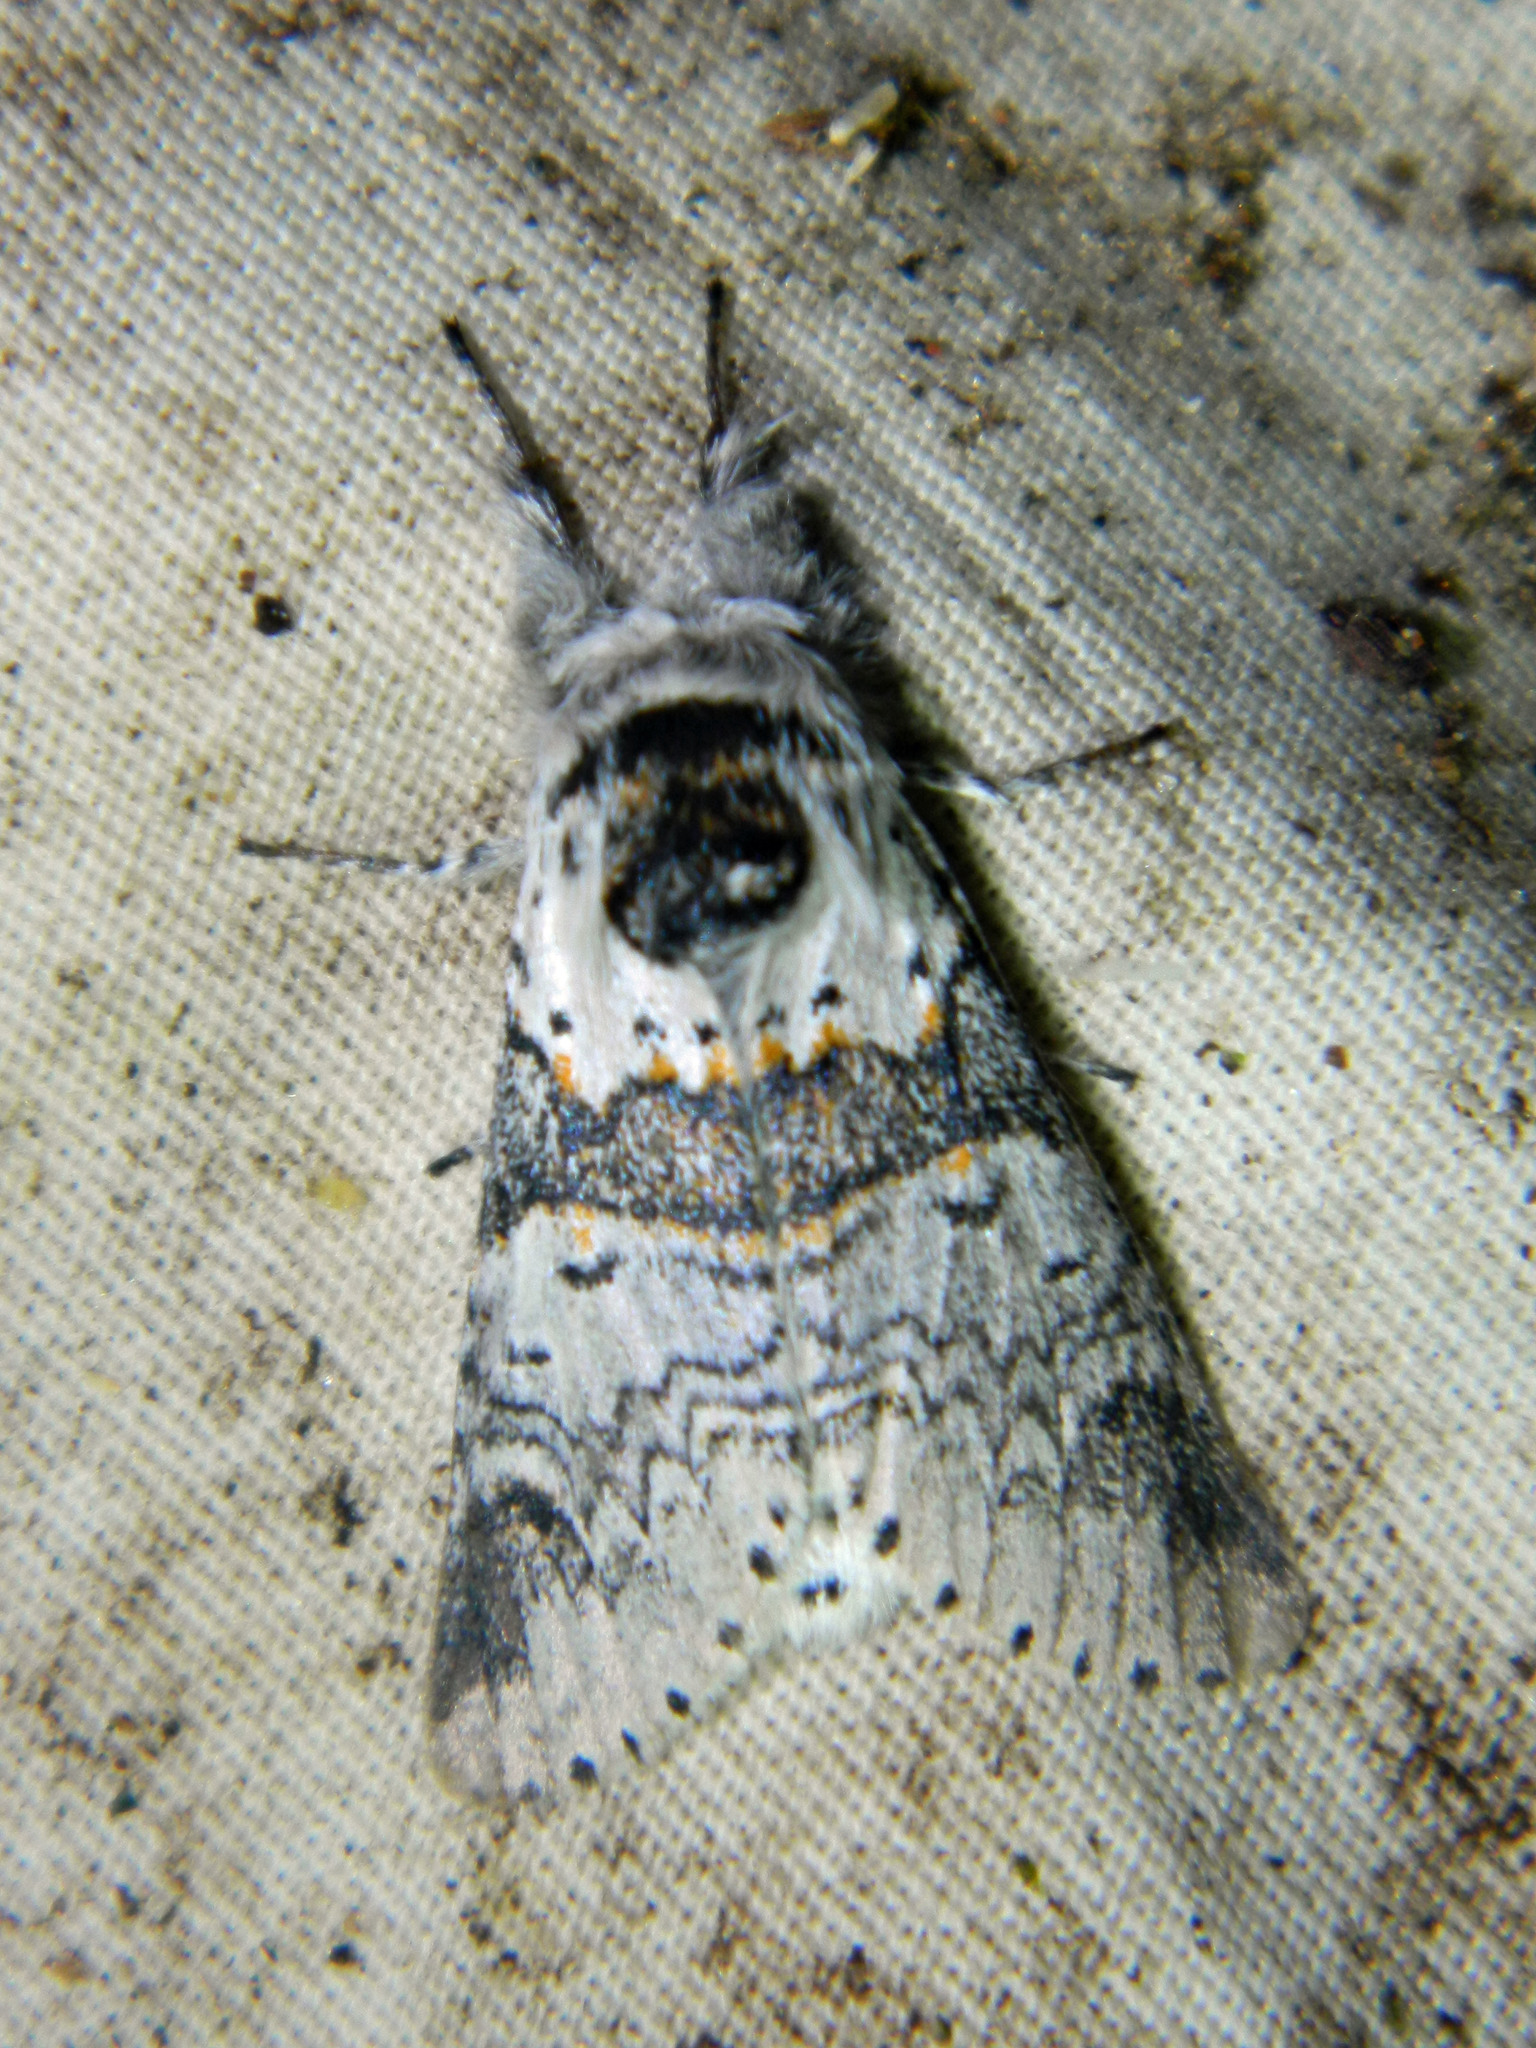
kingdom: Animalia
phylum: Arthropoda
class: Insecta
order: Lepidoptera
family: Notodontidae
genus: Furcula
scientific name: Furcula occidentalis
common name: Western furcula moth
